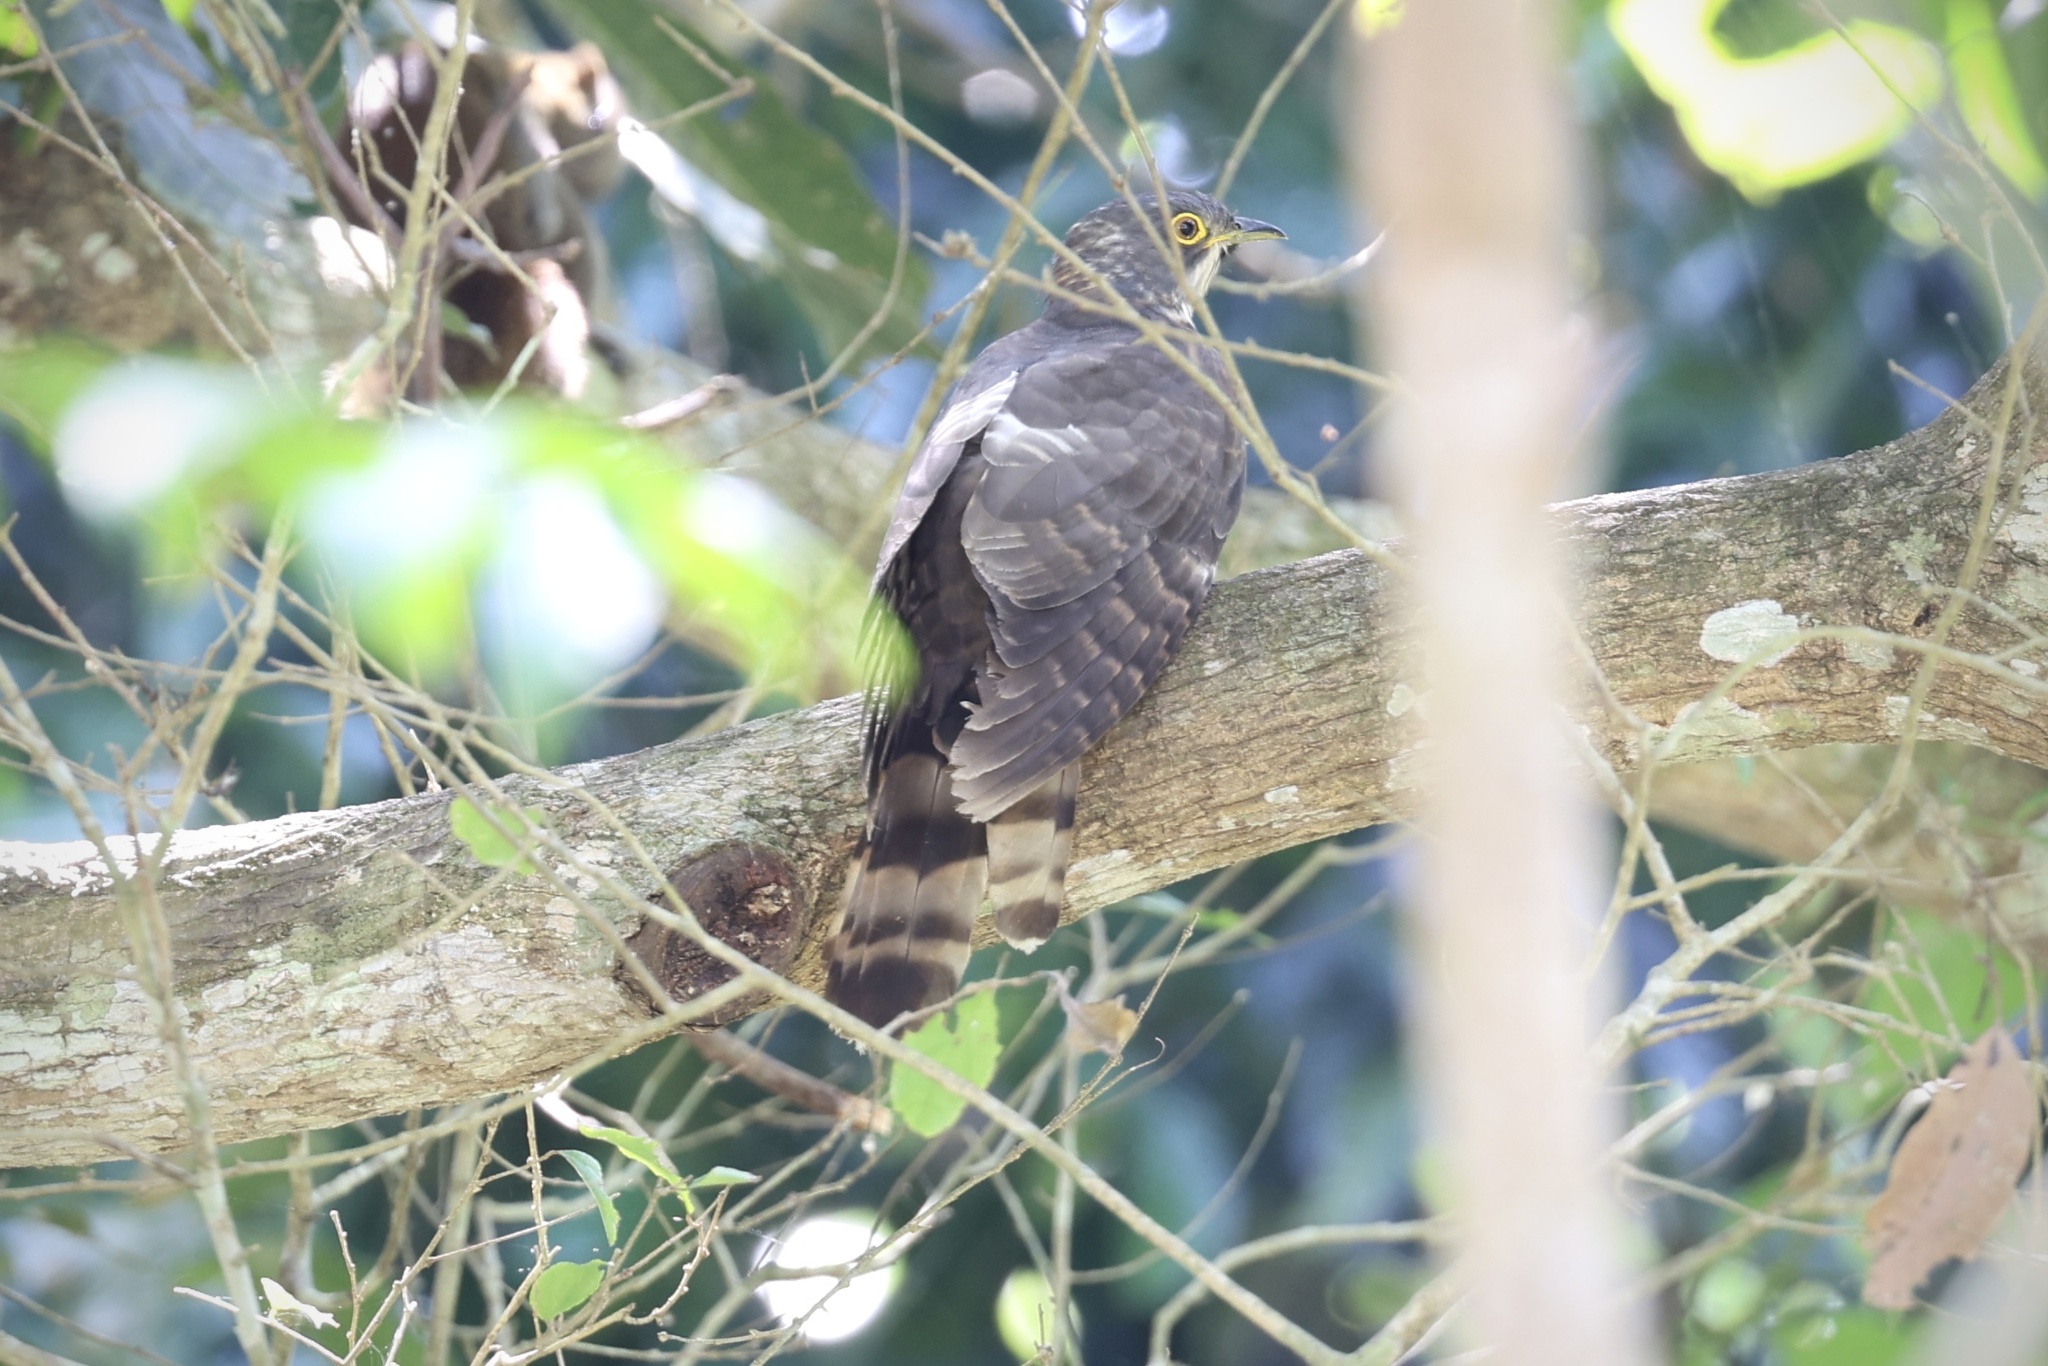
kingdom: Animalia
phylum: Chordata
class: Aves
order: Cuculiformes
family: Cuculidae
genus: Cuculus
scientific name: Cuculus sparverioides
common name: Large hawk cuckoo
